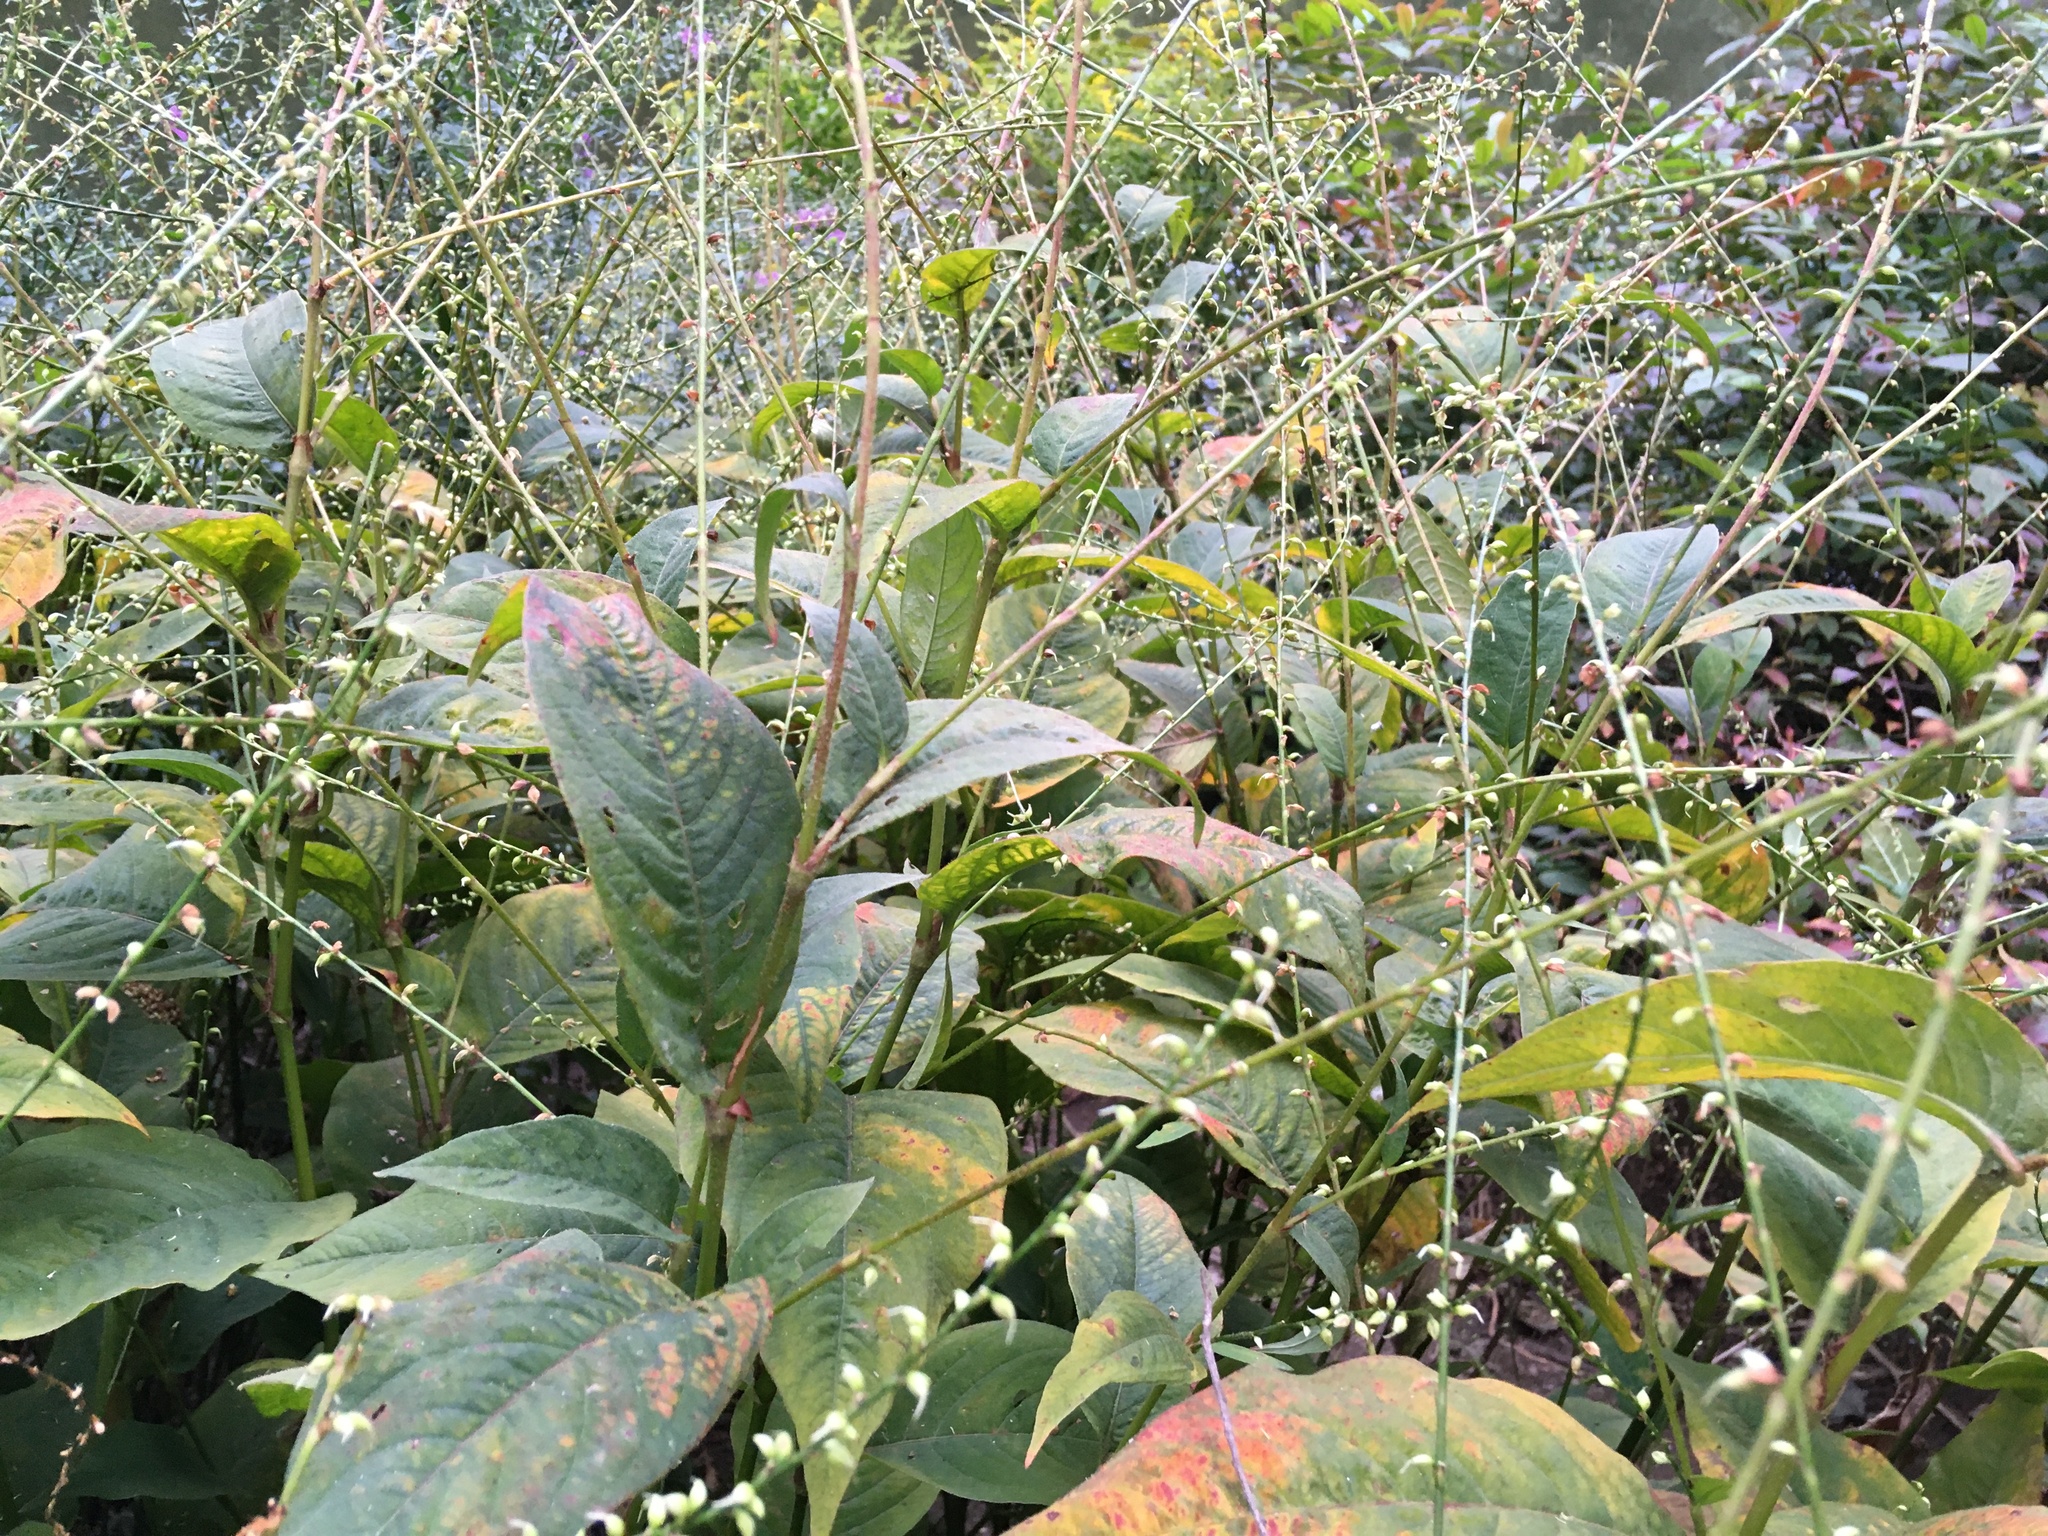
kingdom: Plantae
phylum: Tracheophyta
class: Magnoliopsida
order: Caryophyllales
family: Polygonaceae
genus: Persicaria
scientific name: Persicaria virginiana
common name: Jumpseed
